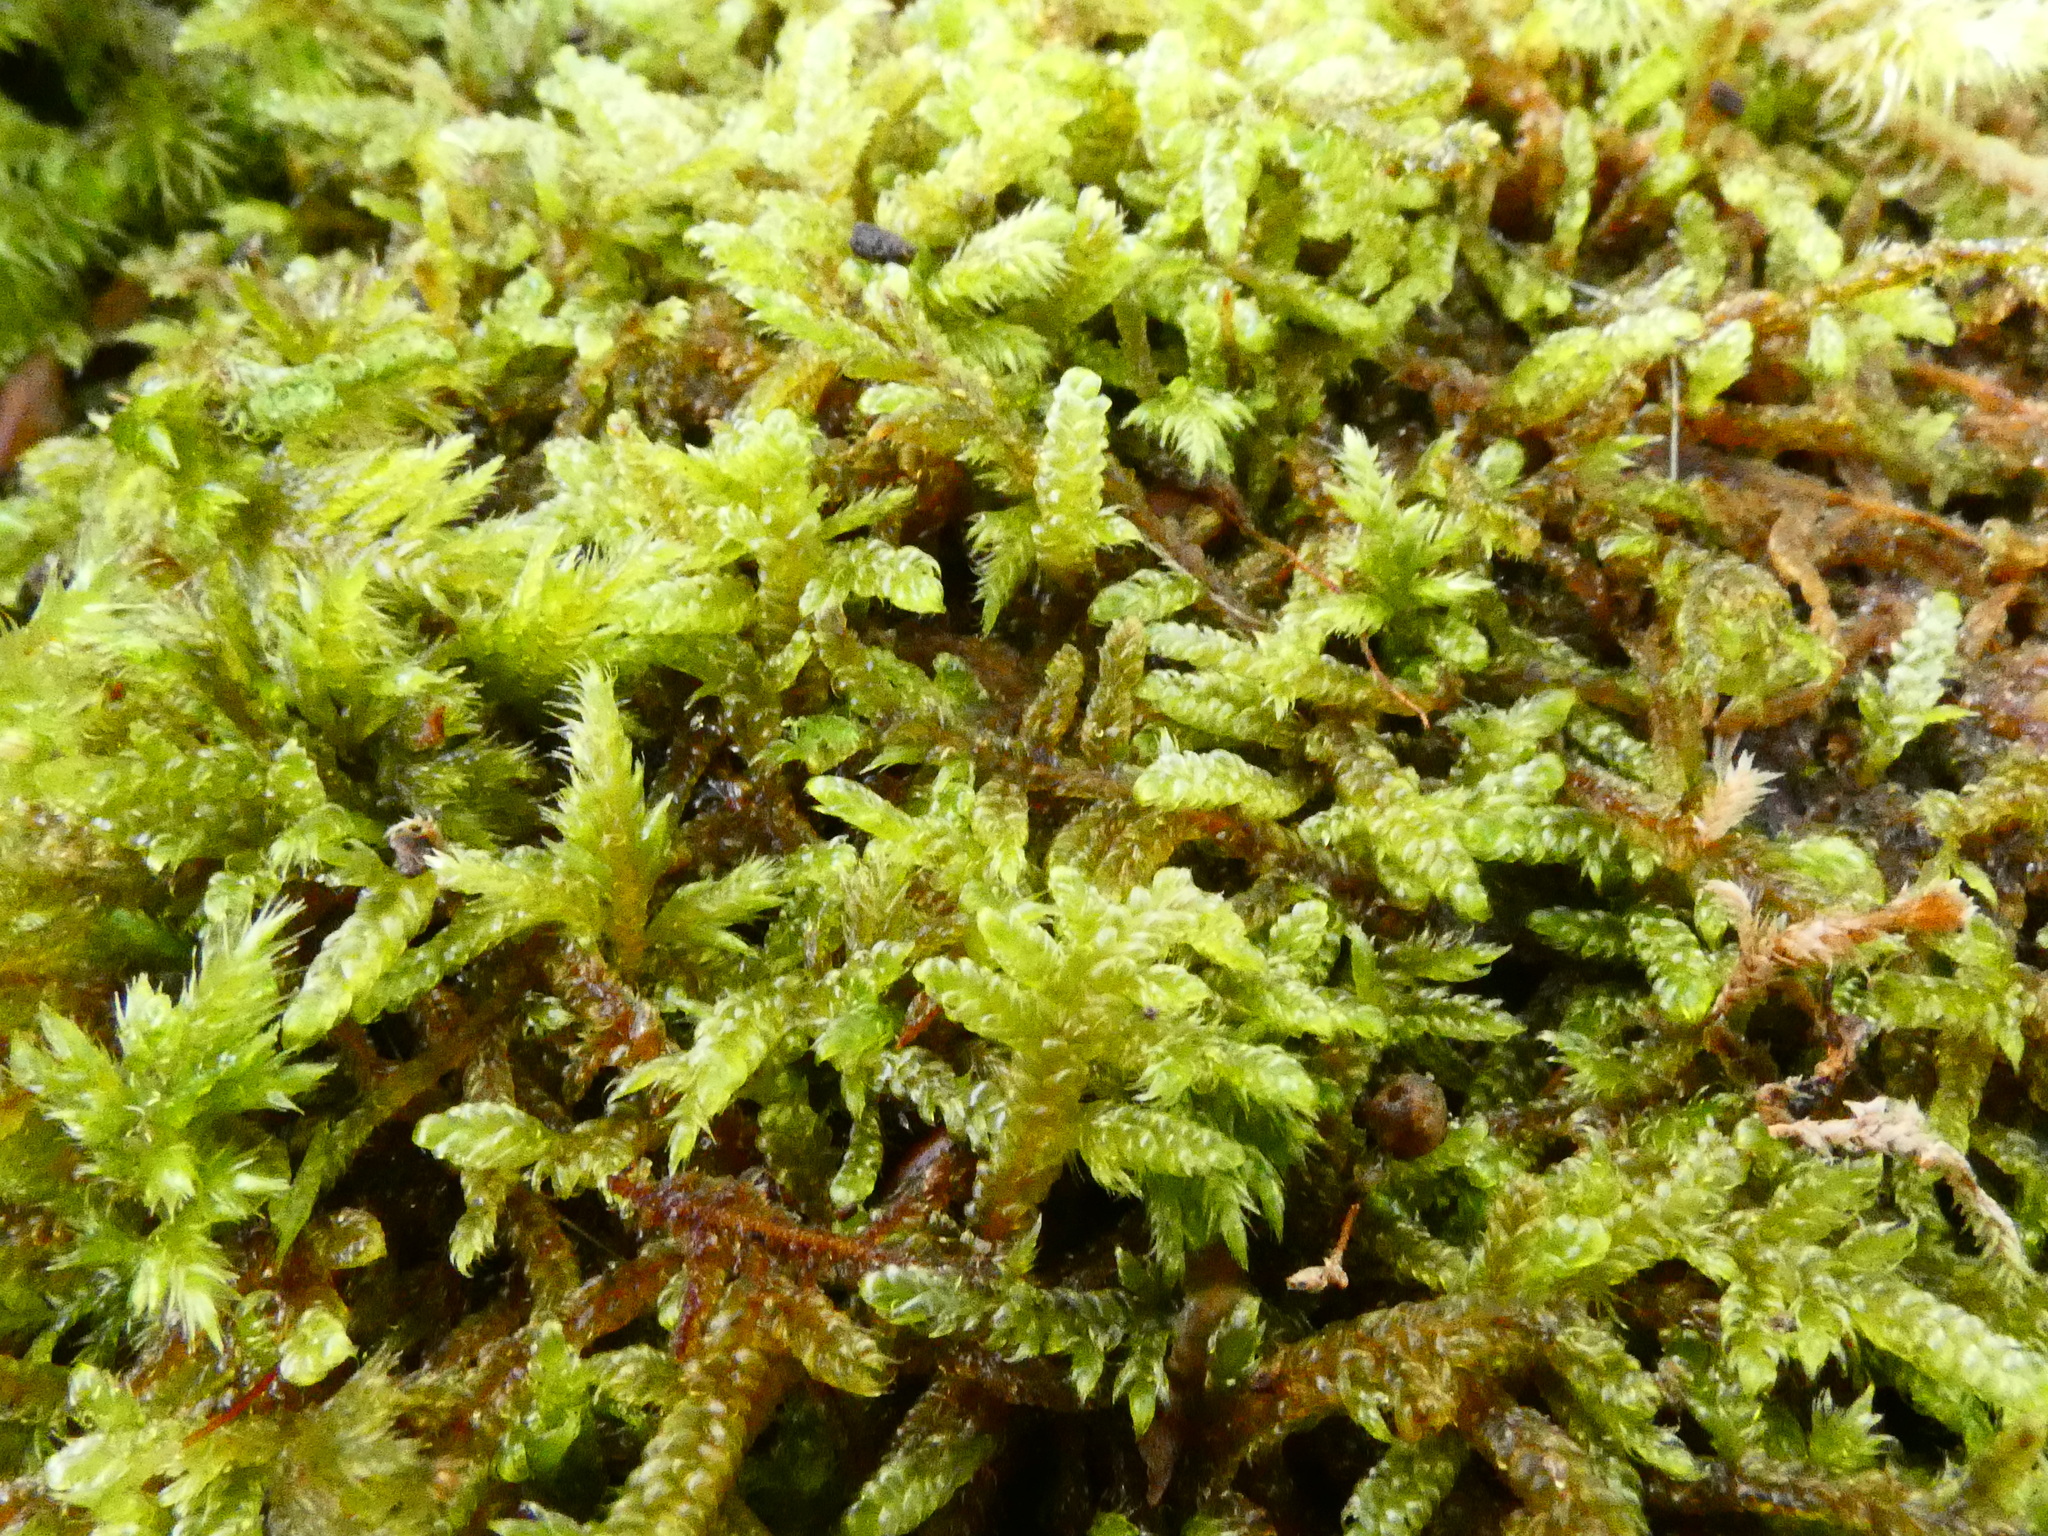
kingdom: Plantae
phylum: Bryophyta
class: Bryopsida
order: Hypnales
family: Hypnaceae
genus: Hypnum
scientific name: Hypnum cupressiforme
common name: Cypress-leaved plait-moss
